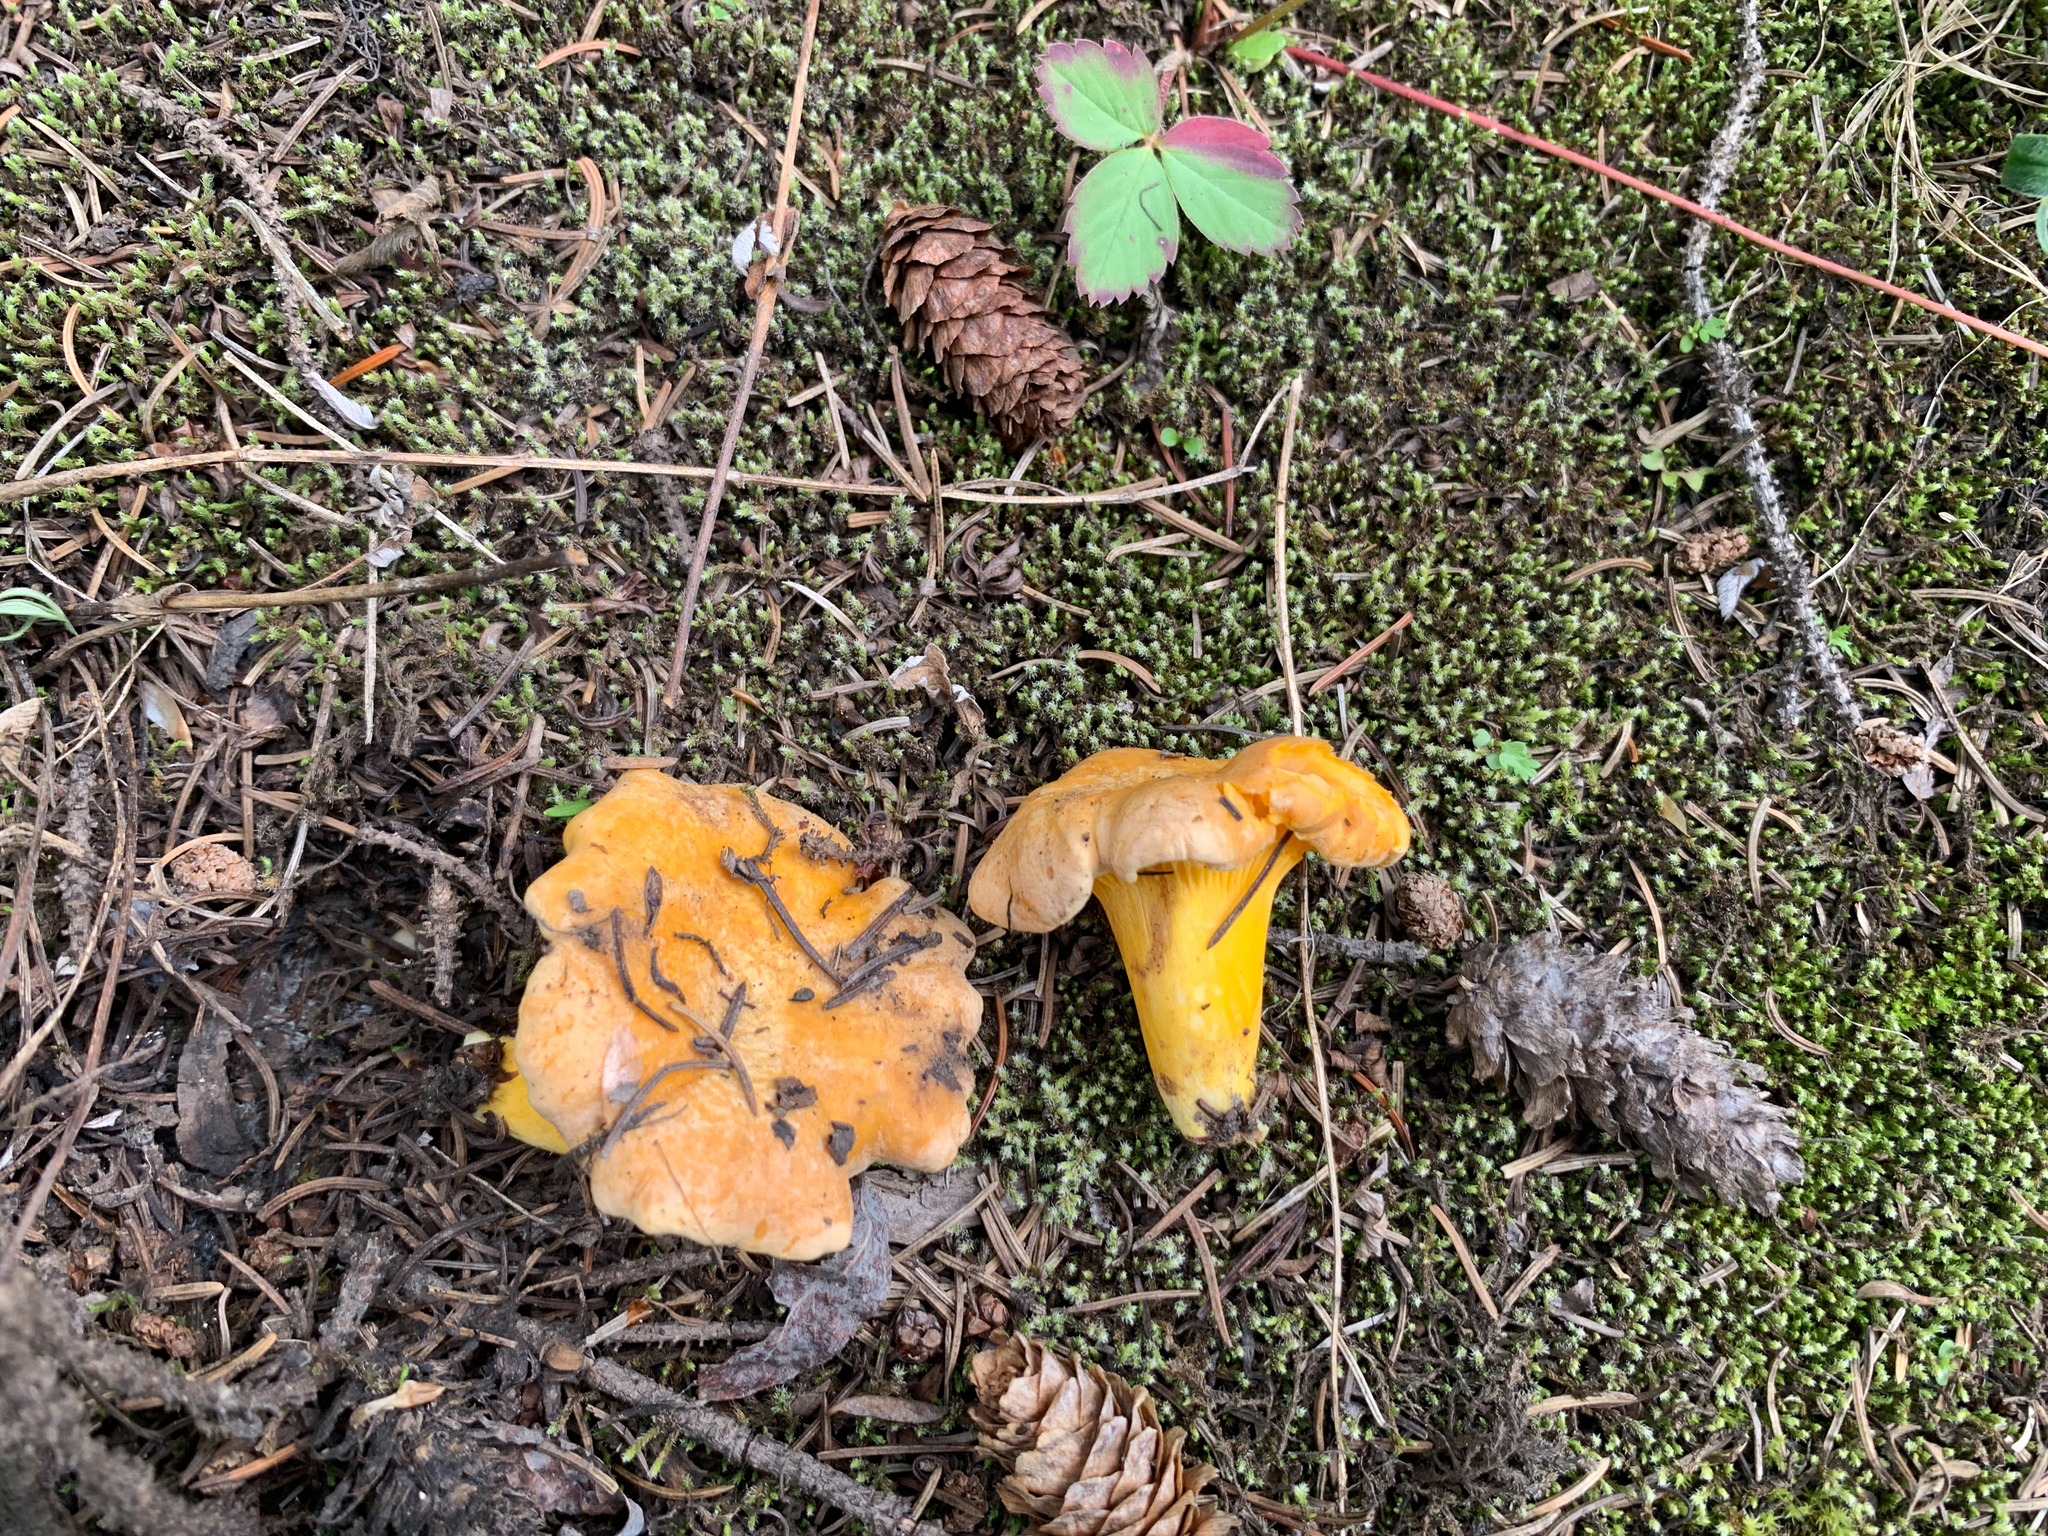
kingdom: Fungi
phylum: Basidiomycota
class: Agaricomycetes
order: Cantharellales
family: Hydnaceae
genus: Cantharellus
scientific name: Cantharellus roseocanus
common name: Rainbow chanterelle
